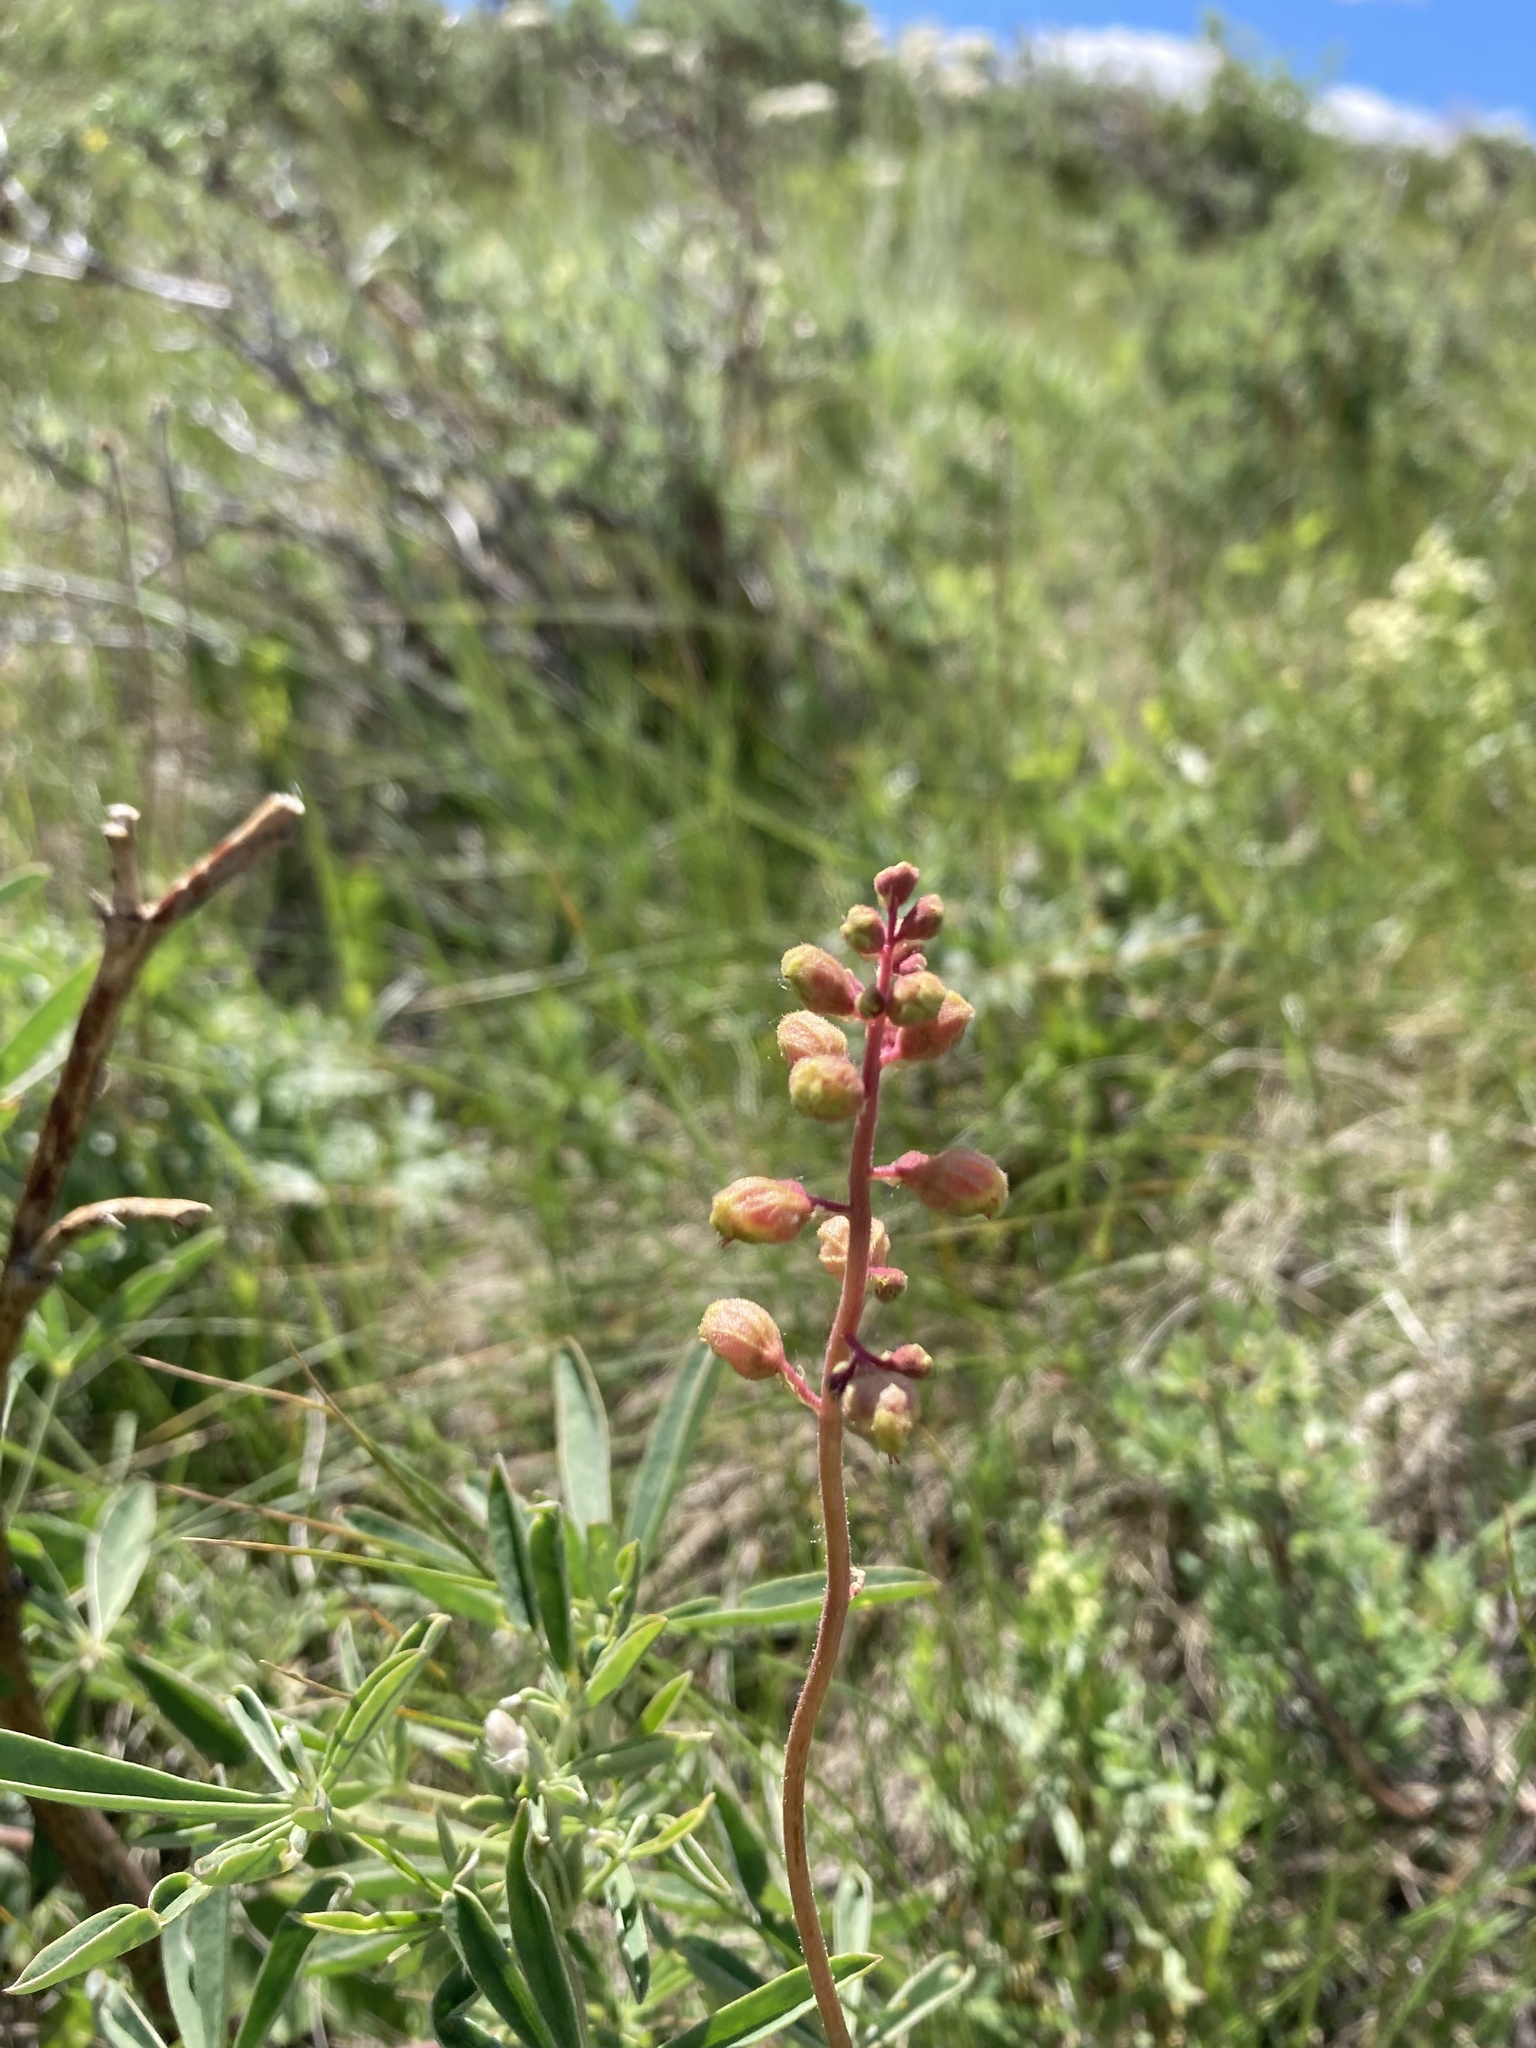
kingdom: Plantae
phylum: Tracheophyta
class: Magnoliopsida
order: Saxifragales
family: Saxifragaceae
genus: Heuchera
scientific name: Heuchera richardsonii
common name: Richardson's alumroot
